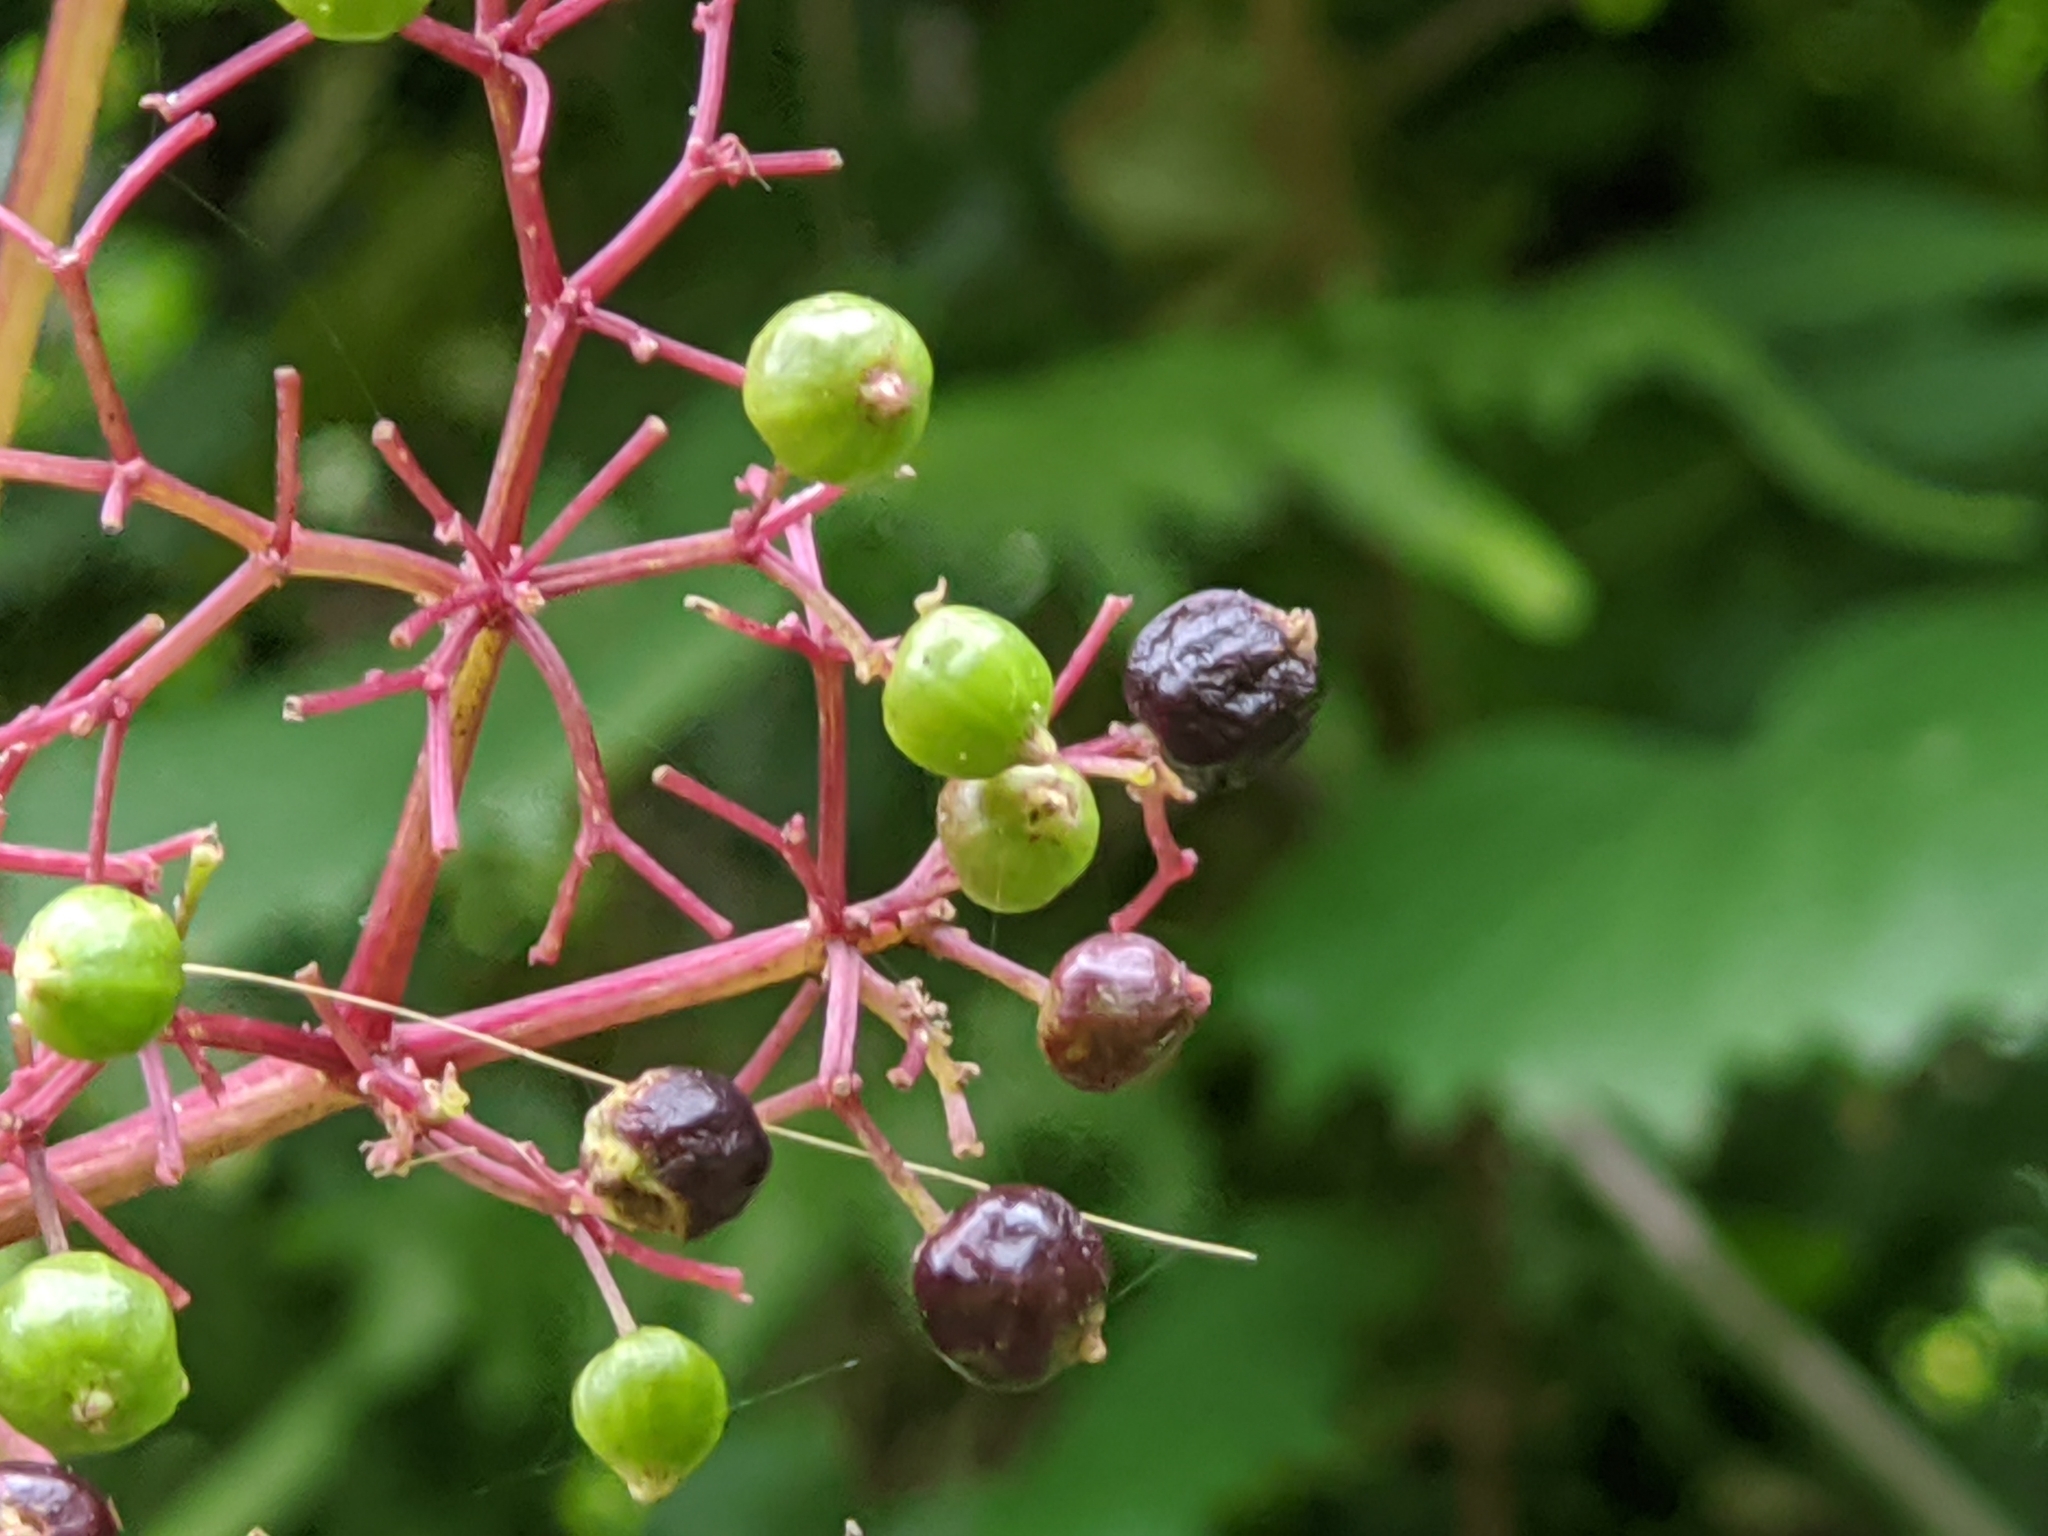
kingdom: Plantae
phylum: Tracheophyta
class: Magnoliopsida
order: Dipsacales
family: Viburnaceae
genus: Sambucus
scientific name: Sambucus canadensis
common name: American elder
